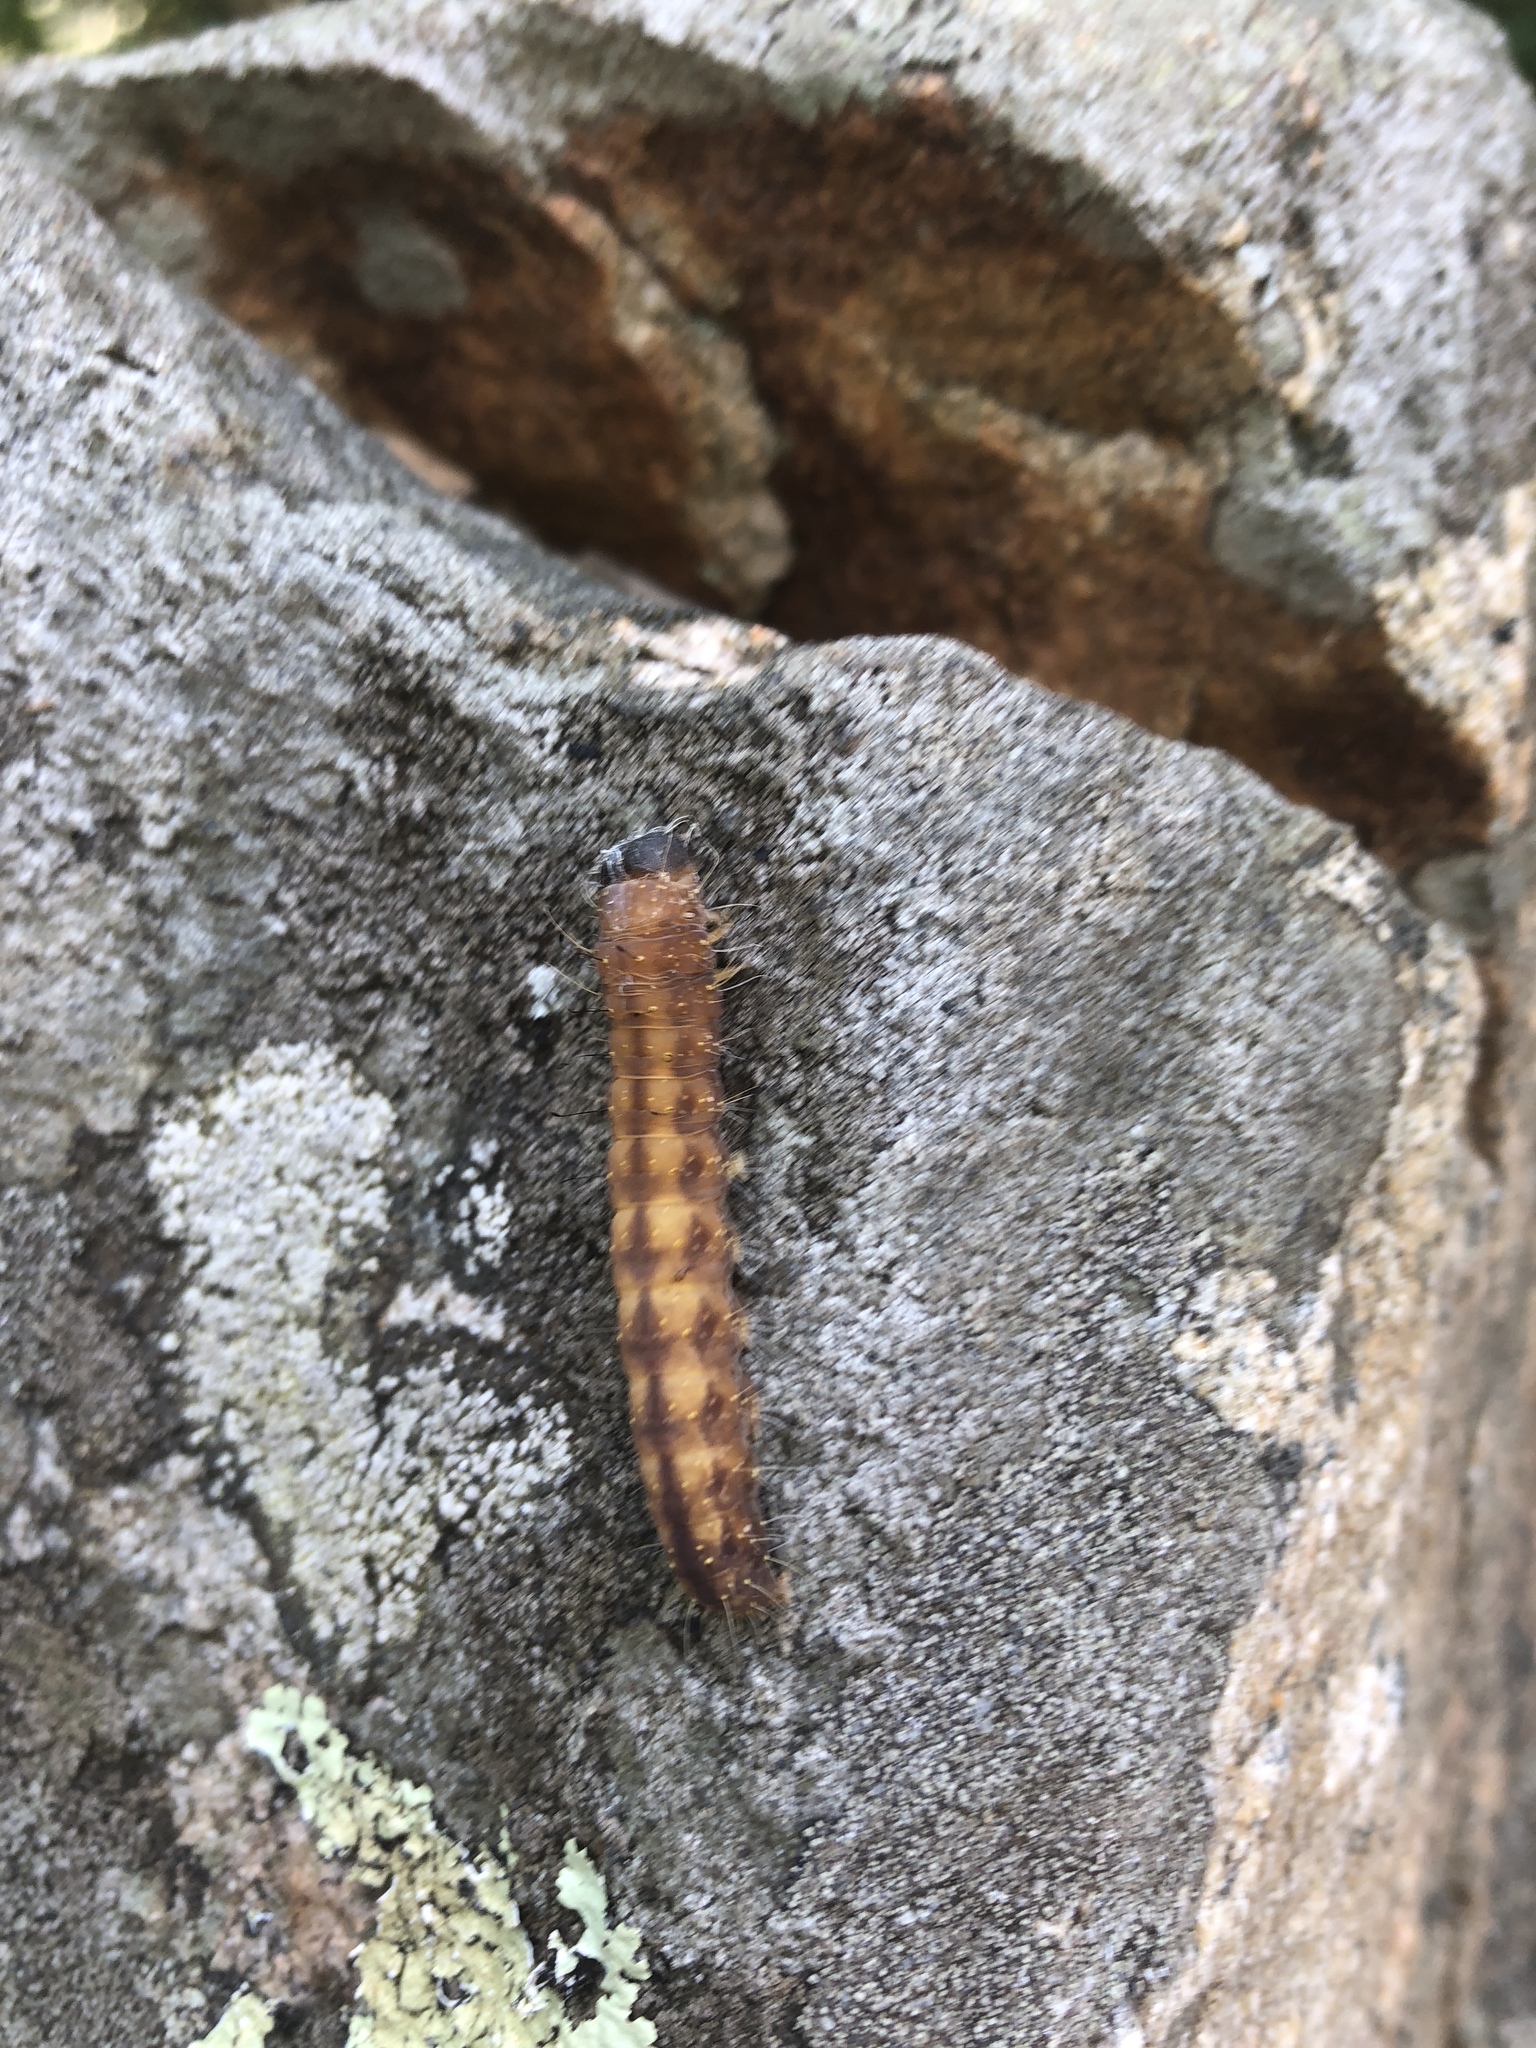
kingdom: Animalia
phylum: Arthropoda
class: Insecta
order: Lepidoptera
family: Noctuidae
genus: Acronicta
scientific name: Acronicta afflicta
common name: Afflicted dagger moth
